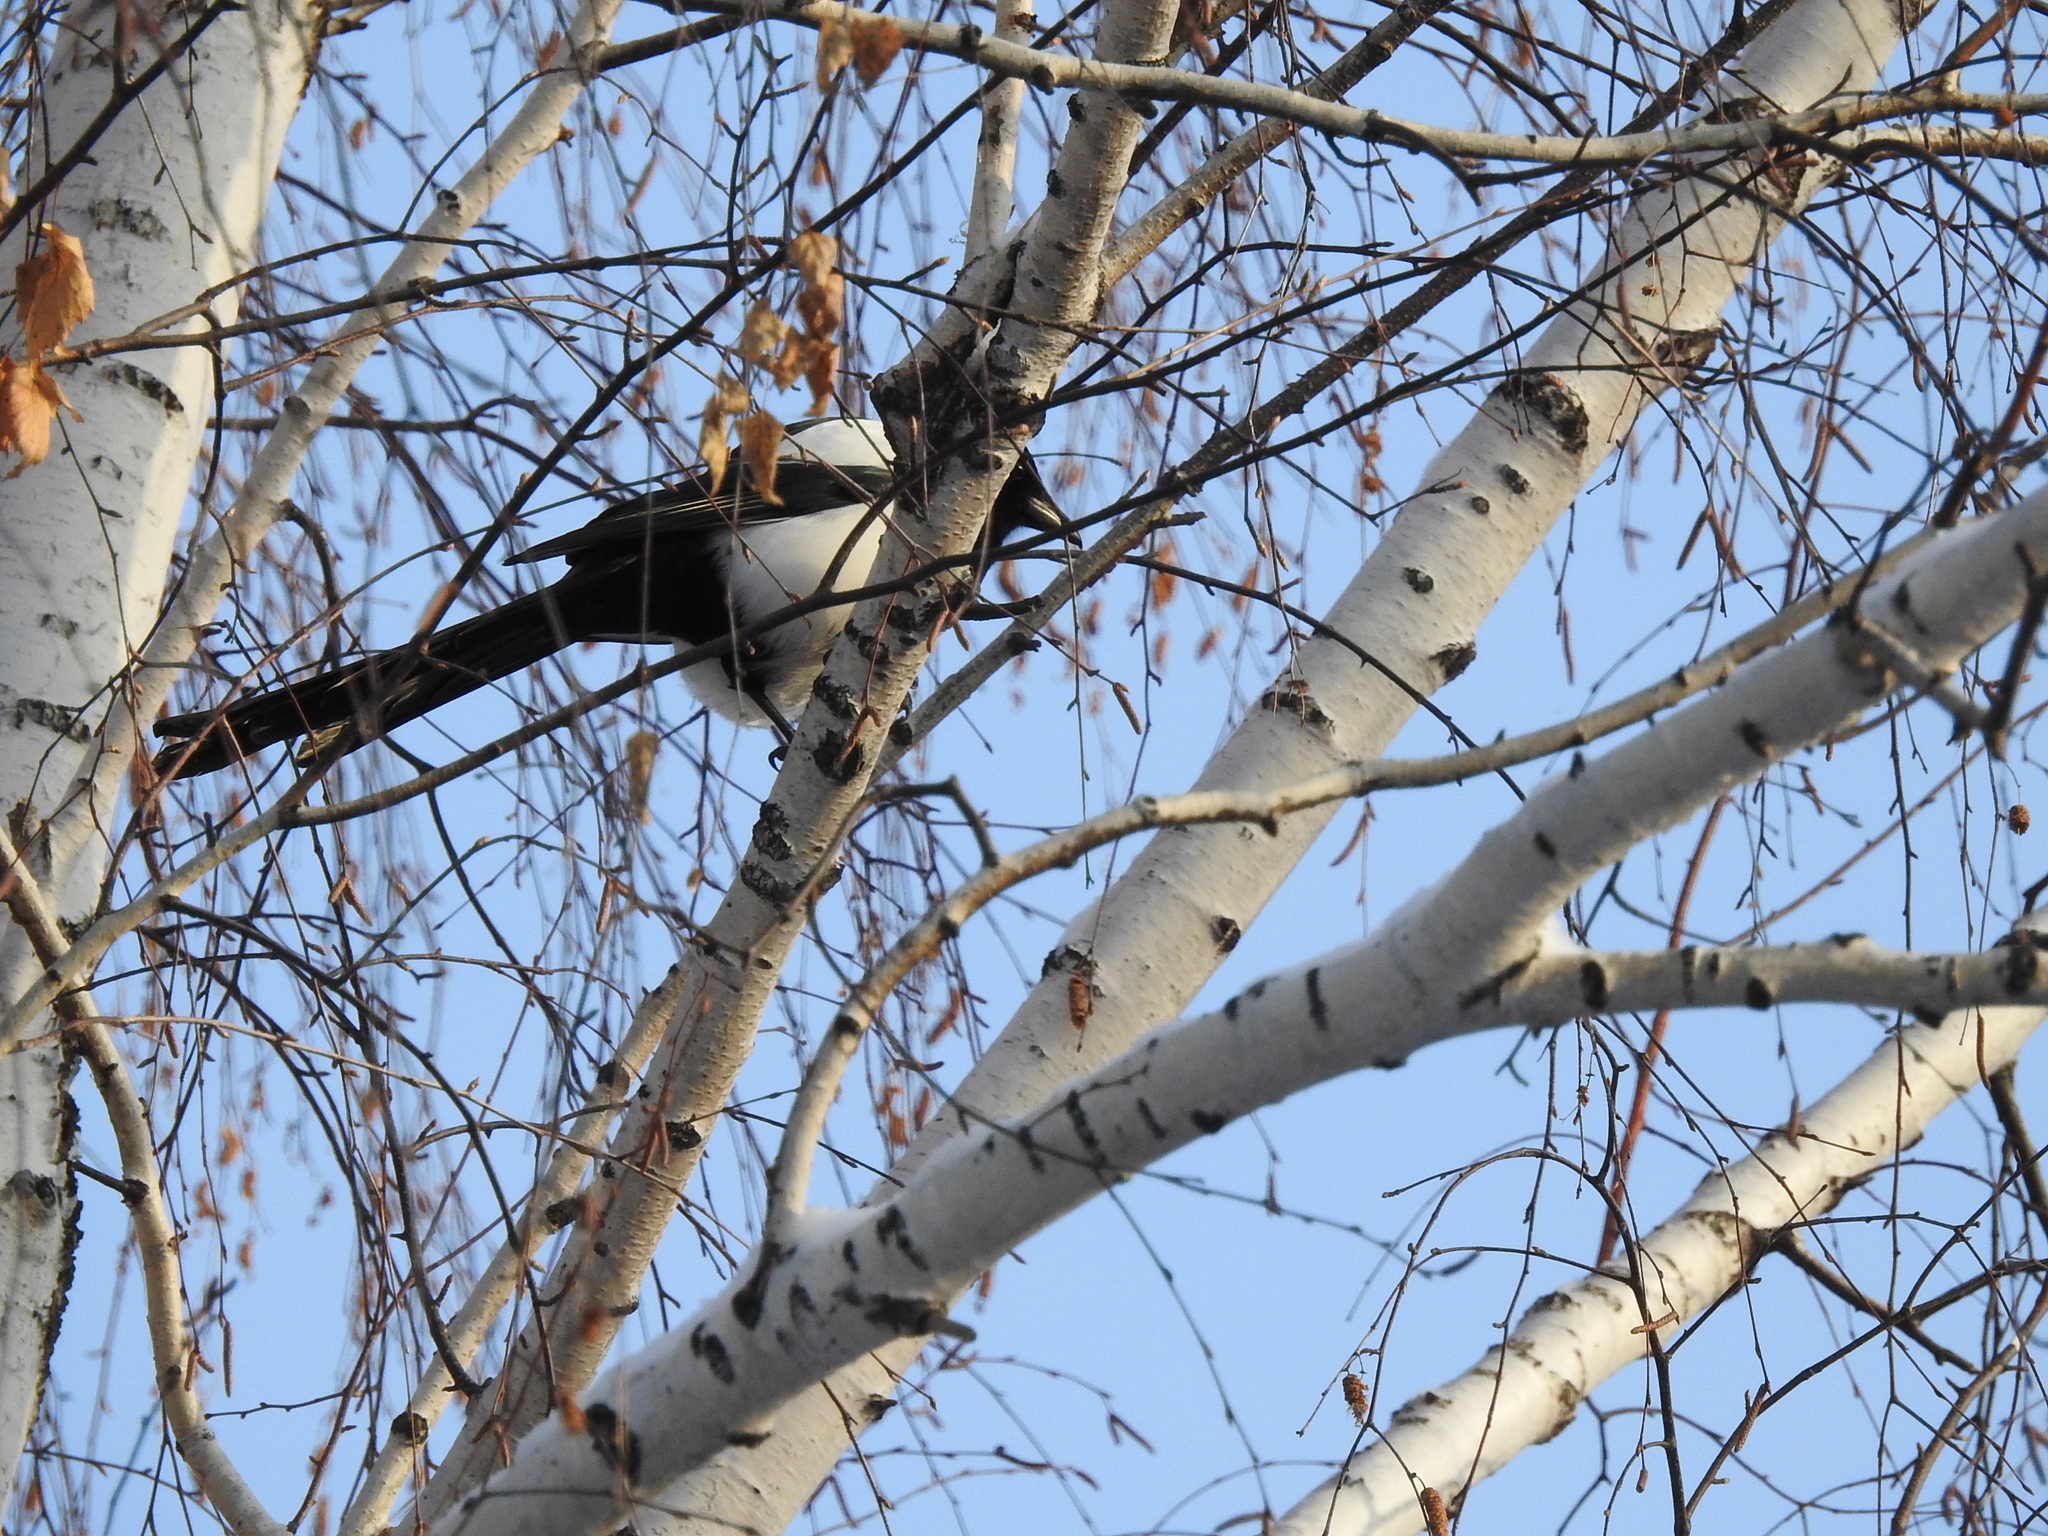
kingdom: Animalia
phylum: Chordata
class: Aves
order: Passeriformes
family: Corvidae
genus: Pica
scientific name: Pica pica
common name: Eurasian magpie
